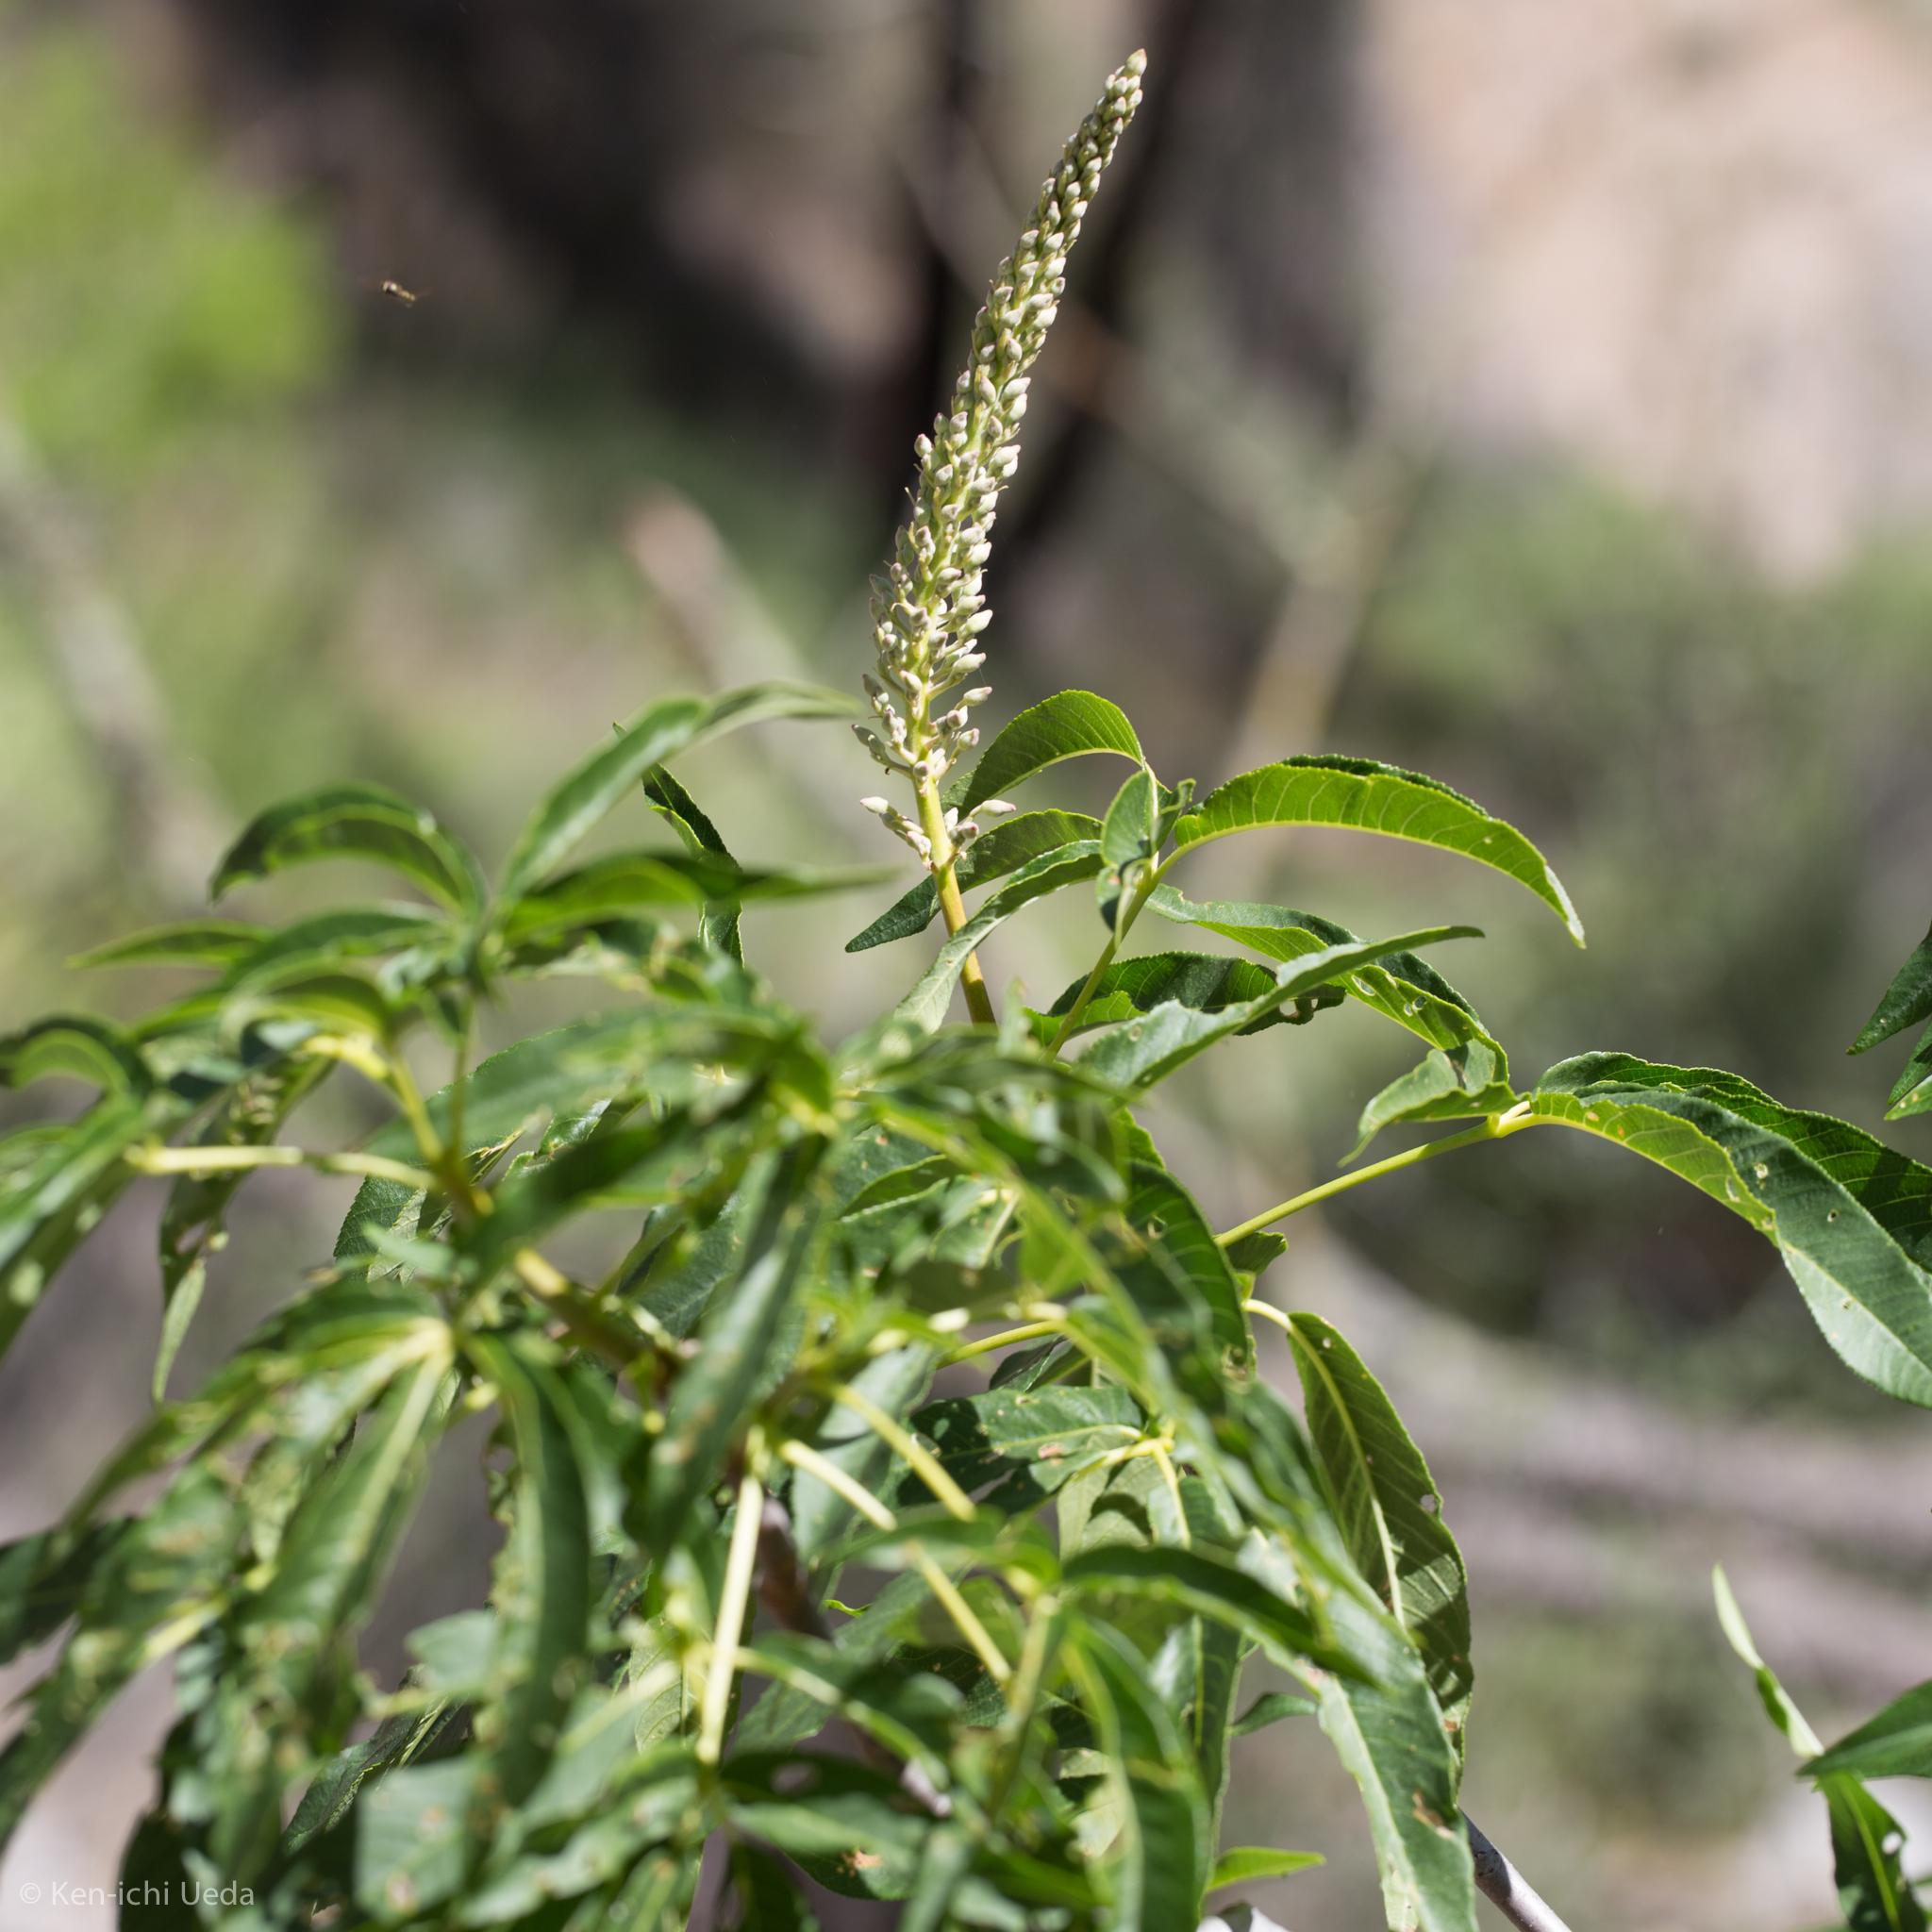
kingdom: Plantae
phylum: Tracheophyta
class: Magnoliopsida
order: Sapindales
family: Sapindaceae
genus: Aesculus
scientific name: Aesculus californica
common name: California buckeye
